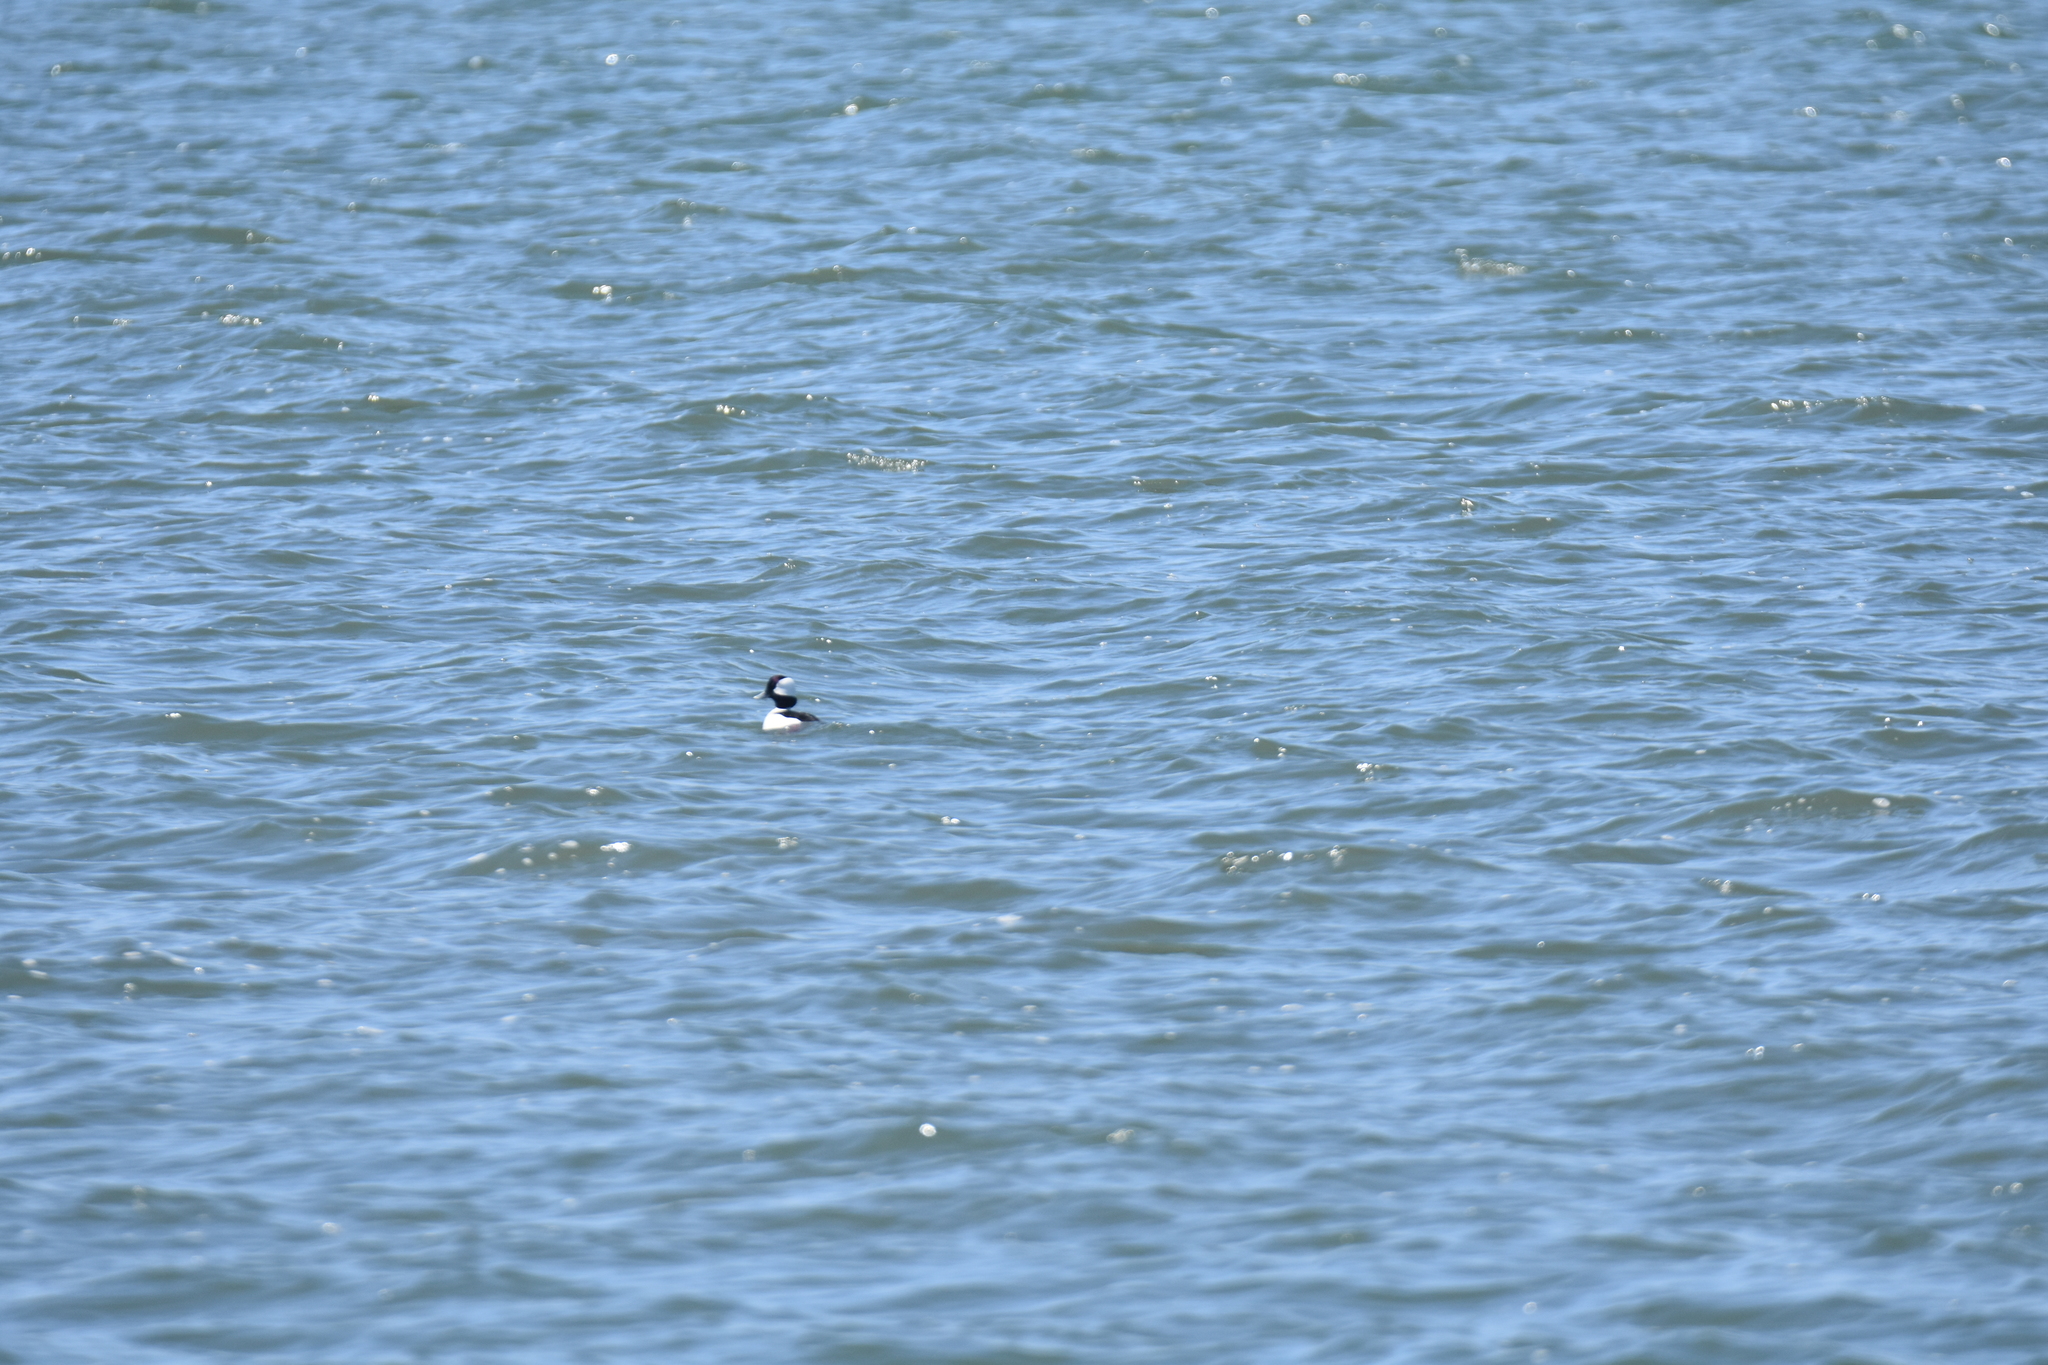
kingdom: Animalia
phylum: Chordata
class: Aves
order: Anseriformes
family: Anatidae
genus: Bucephala
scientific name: Bucephala albeola
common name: Bufflehead
